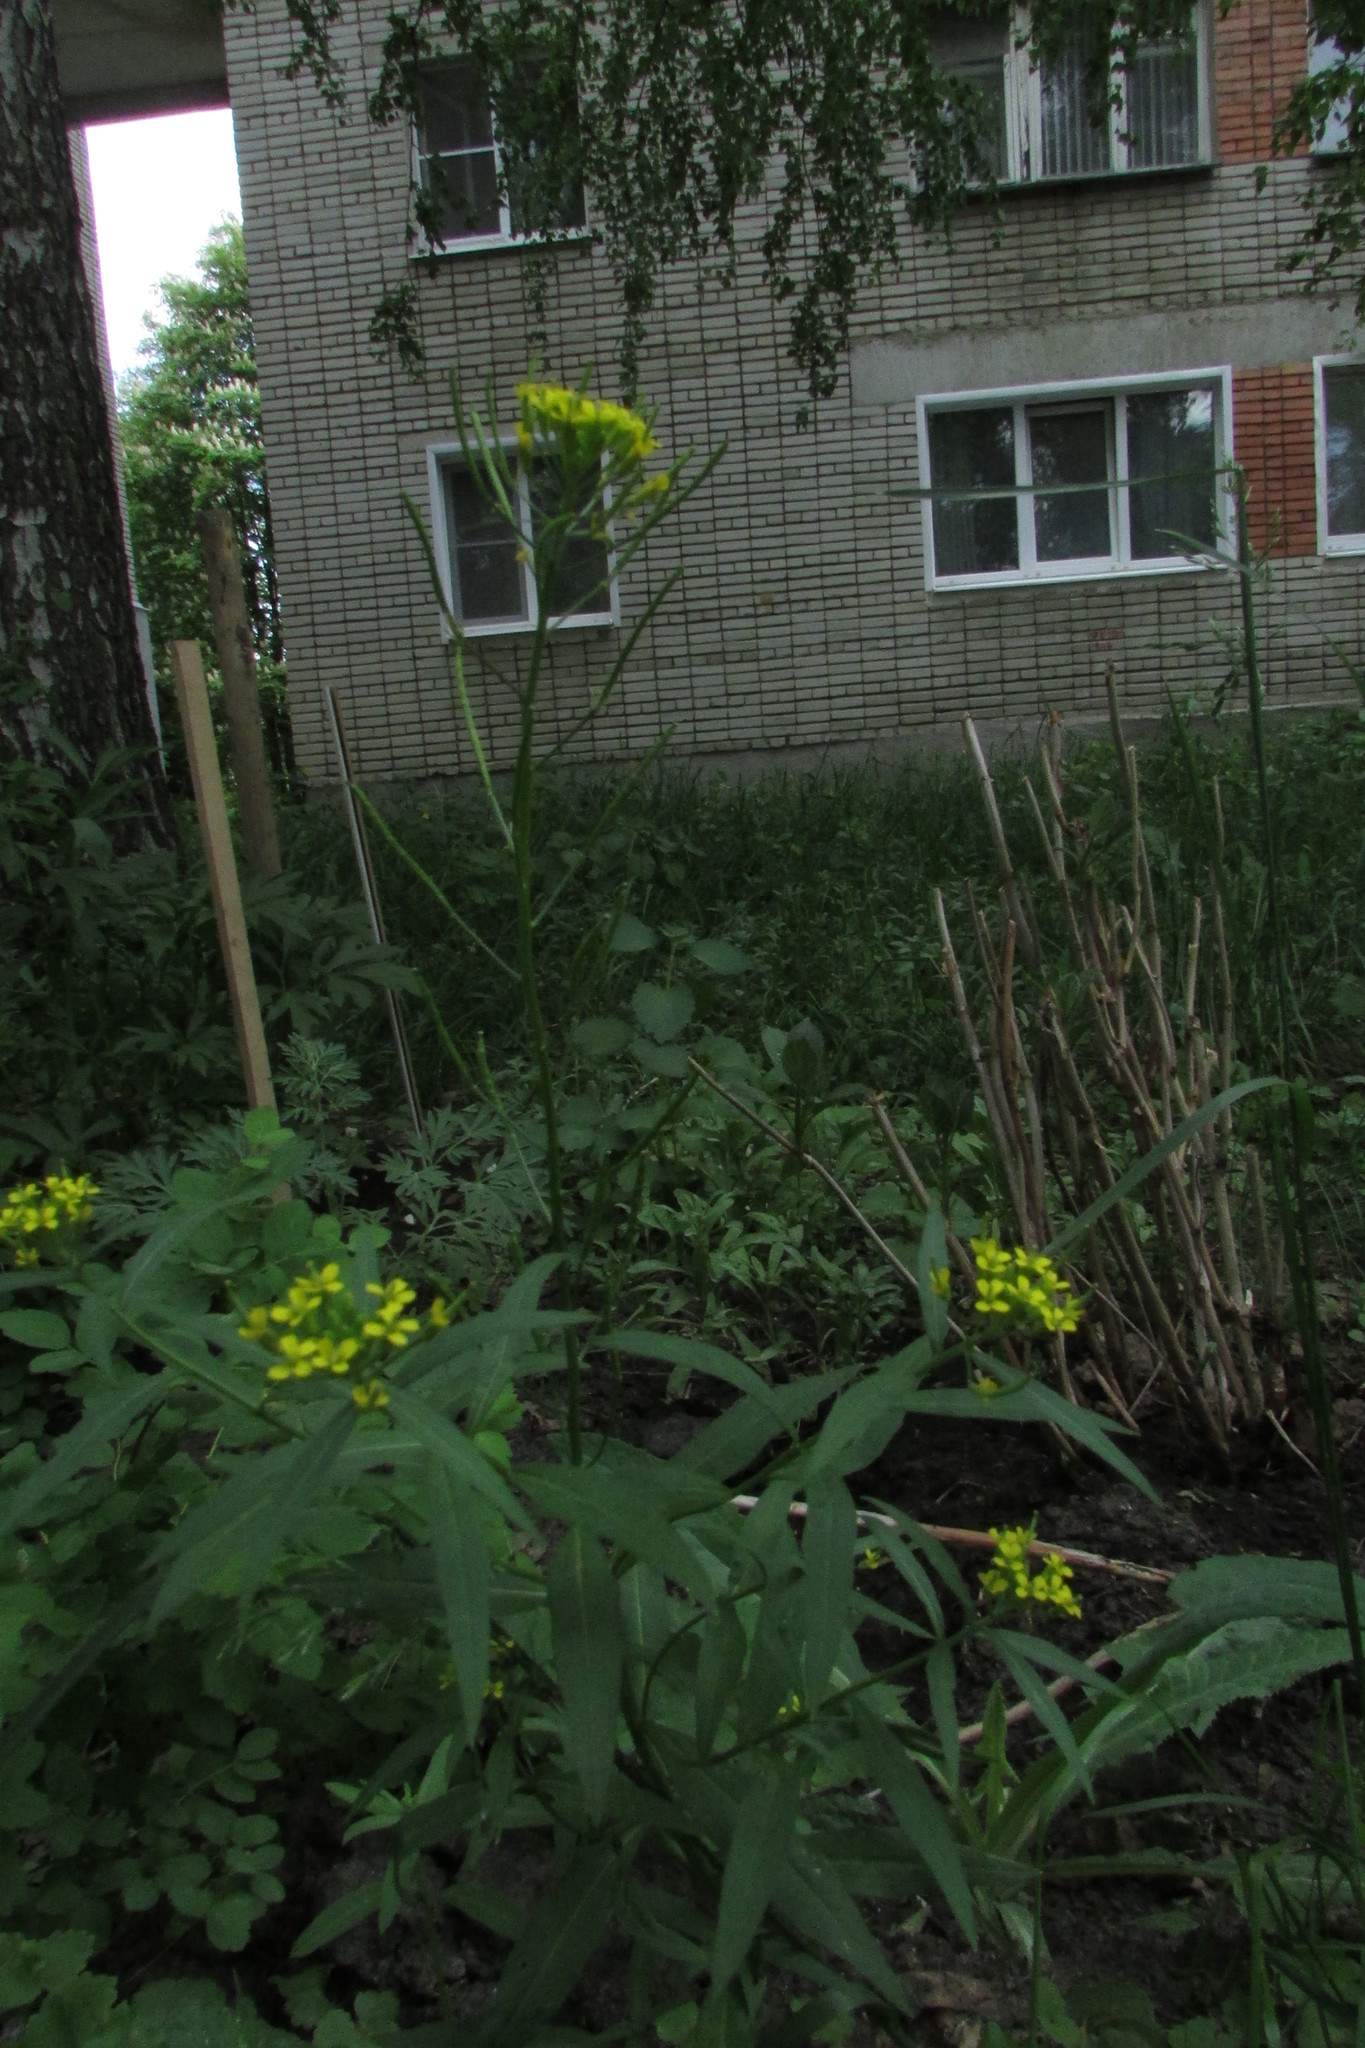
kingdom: Plantae
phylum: Tracheophyta
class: Magnoliopsida
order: Brassicales
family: Brassicaceae
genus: Erysimum
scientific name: Erysimum cheiranthoides
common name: Treacle mustard
